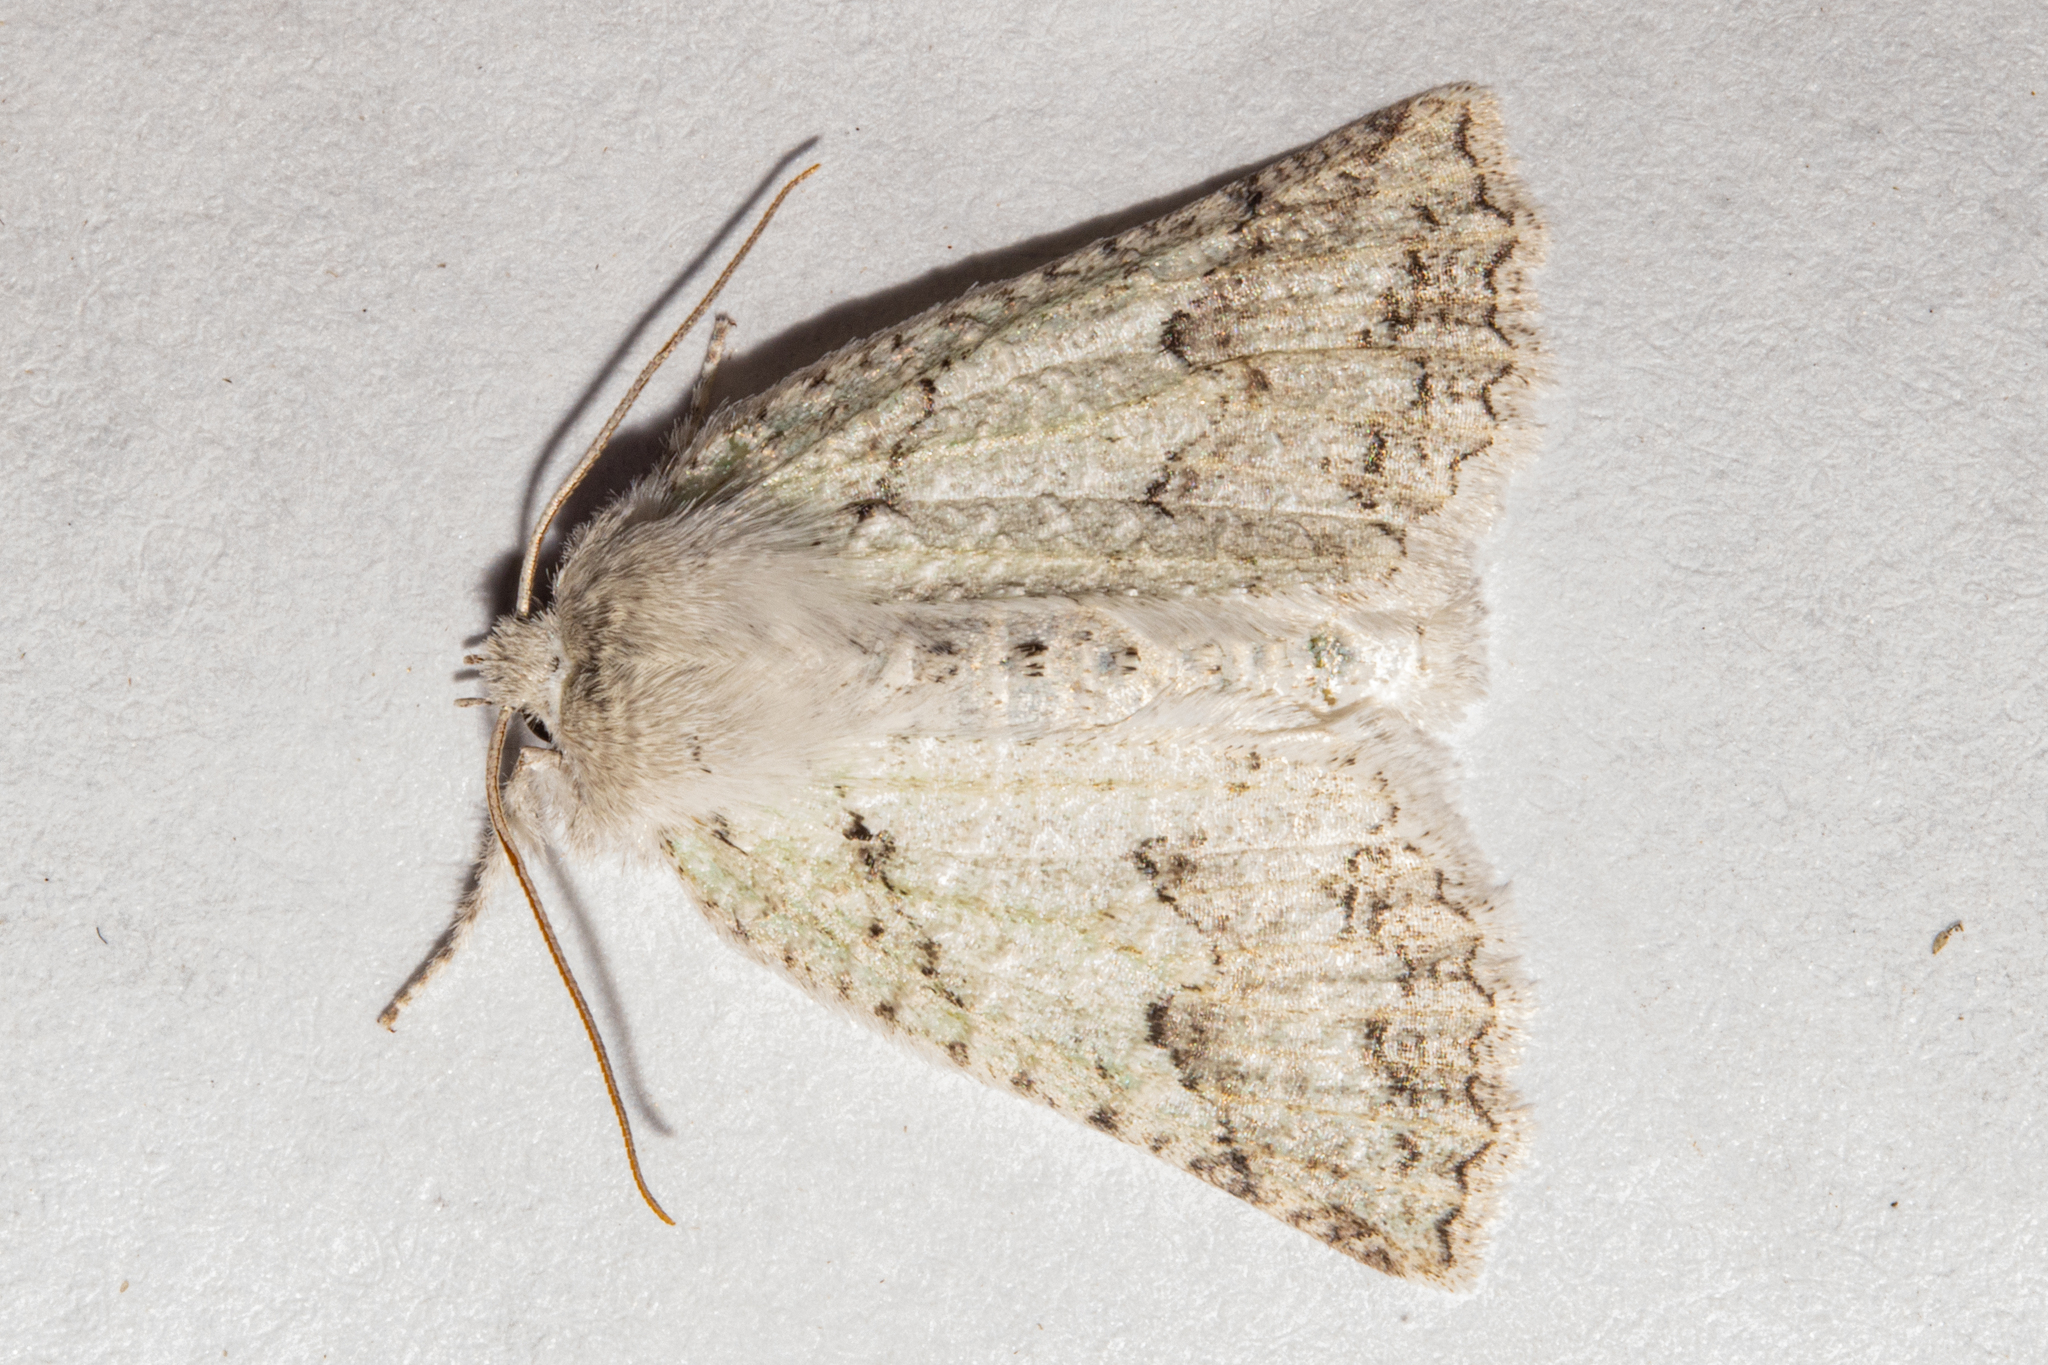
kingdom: Animalia
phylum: Arthropoda
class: Insecta
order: Lepidoptera
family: Geometridae
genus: Declana
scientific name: Declana niveata
